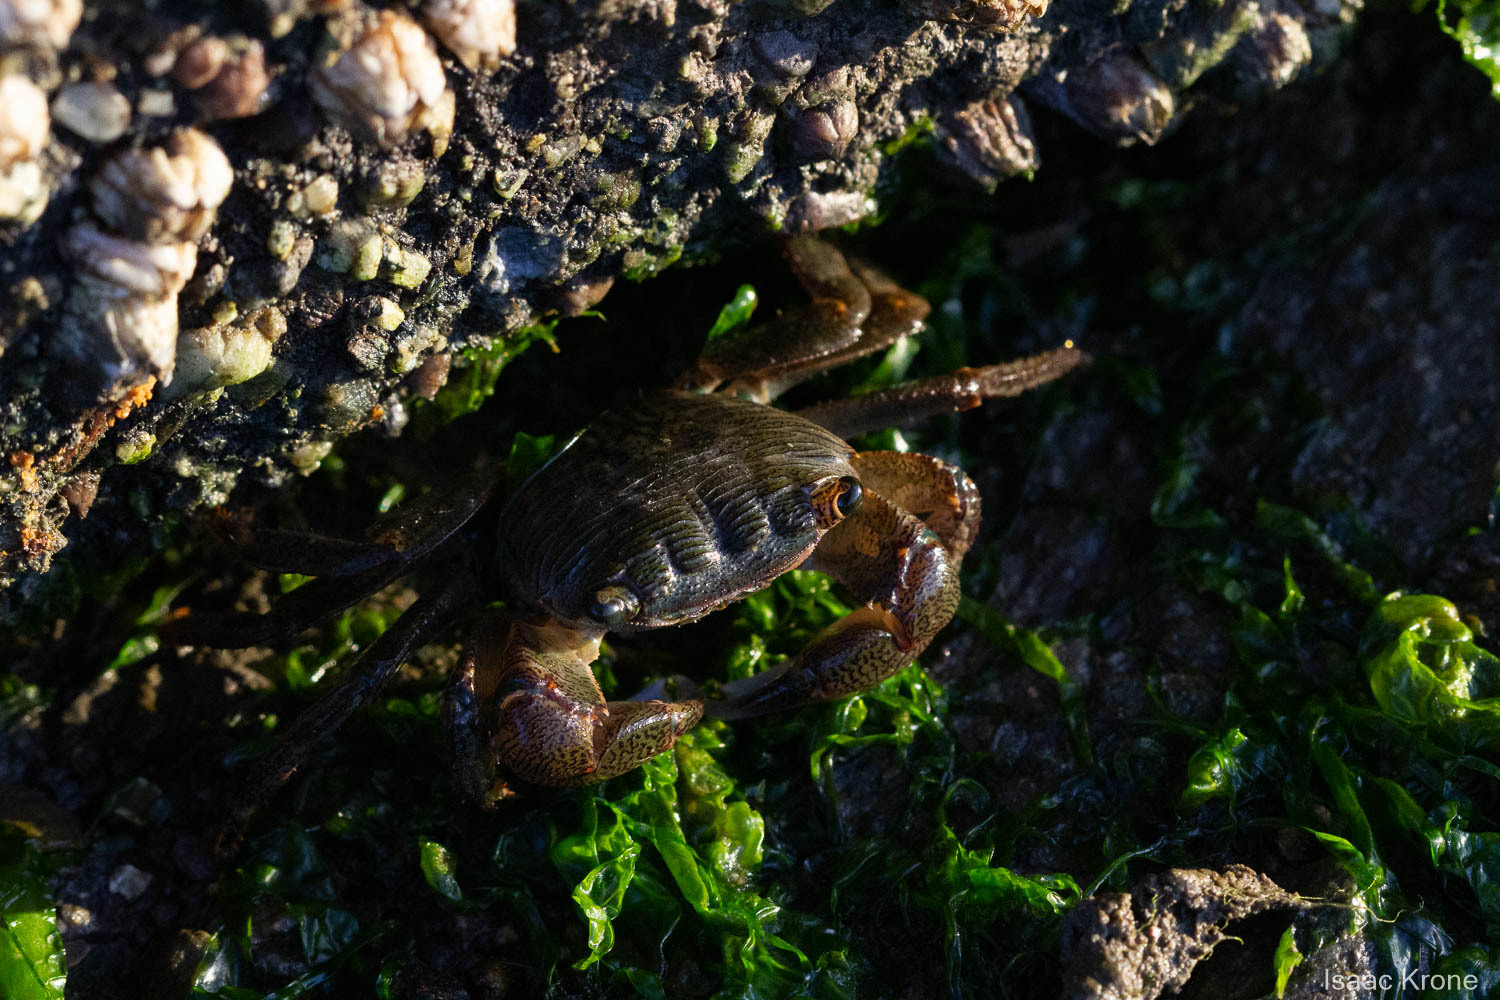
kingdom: Animalia
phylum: Arthropoda
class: Malacostraca
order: Decapoda
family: Grapsidae
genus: Pachygrapsus
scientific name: Pachygrapsus crassipes
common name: Striped shore crab
